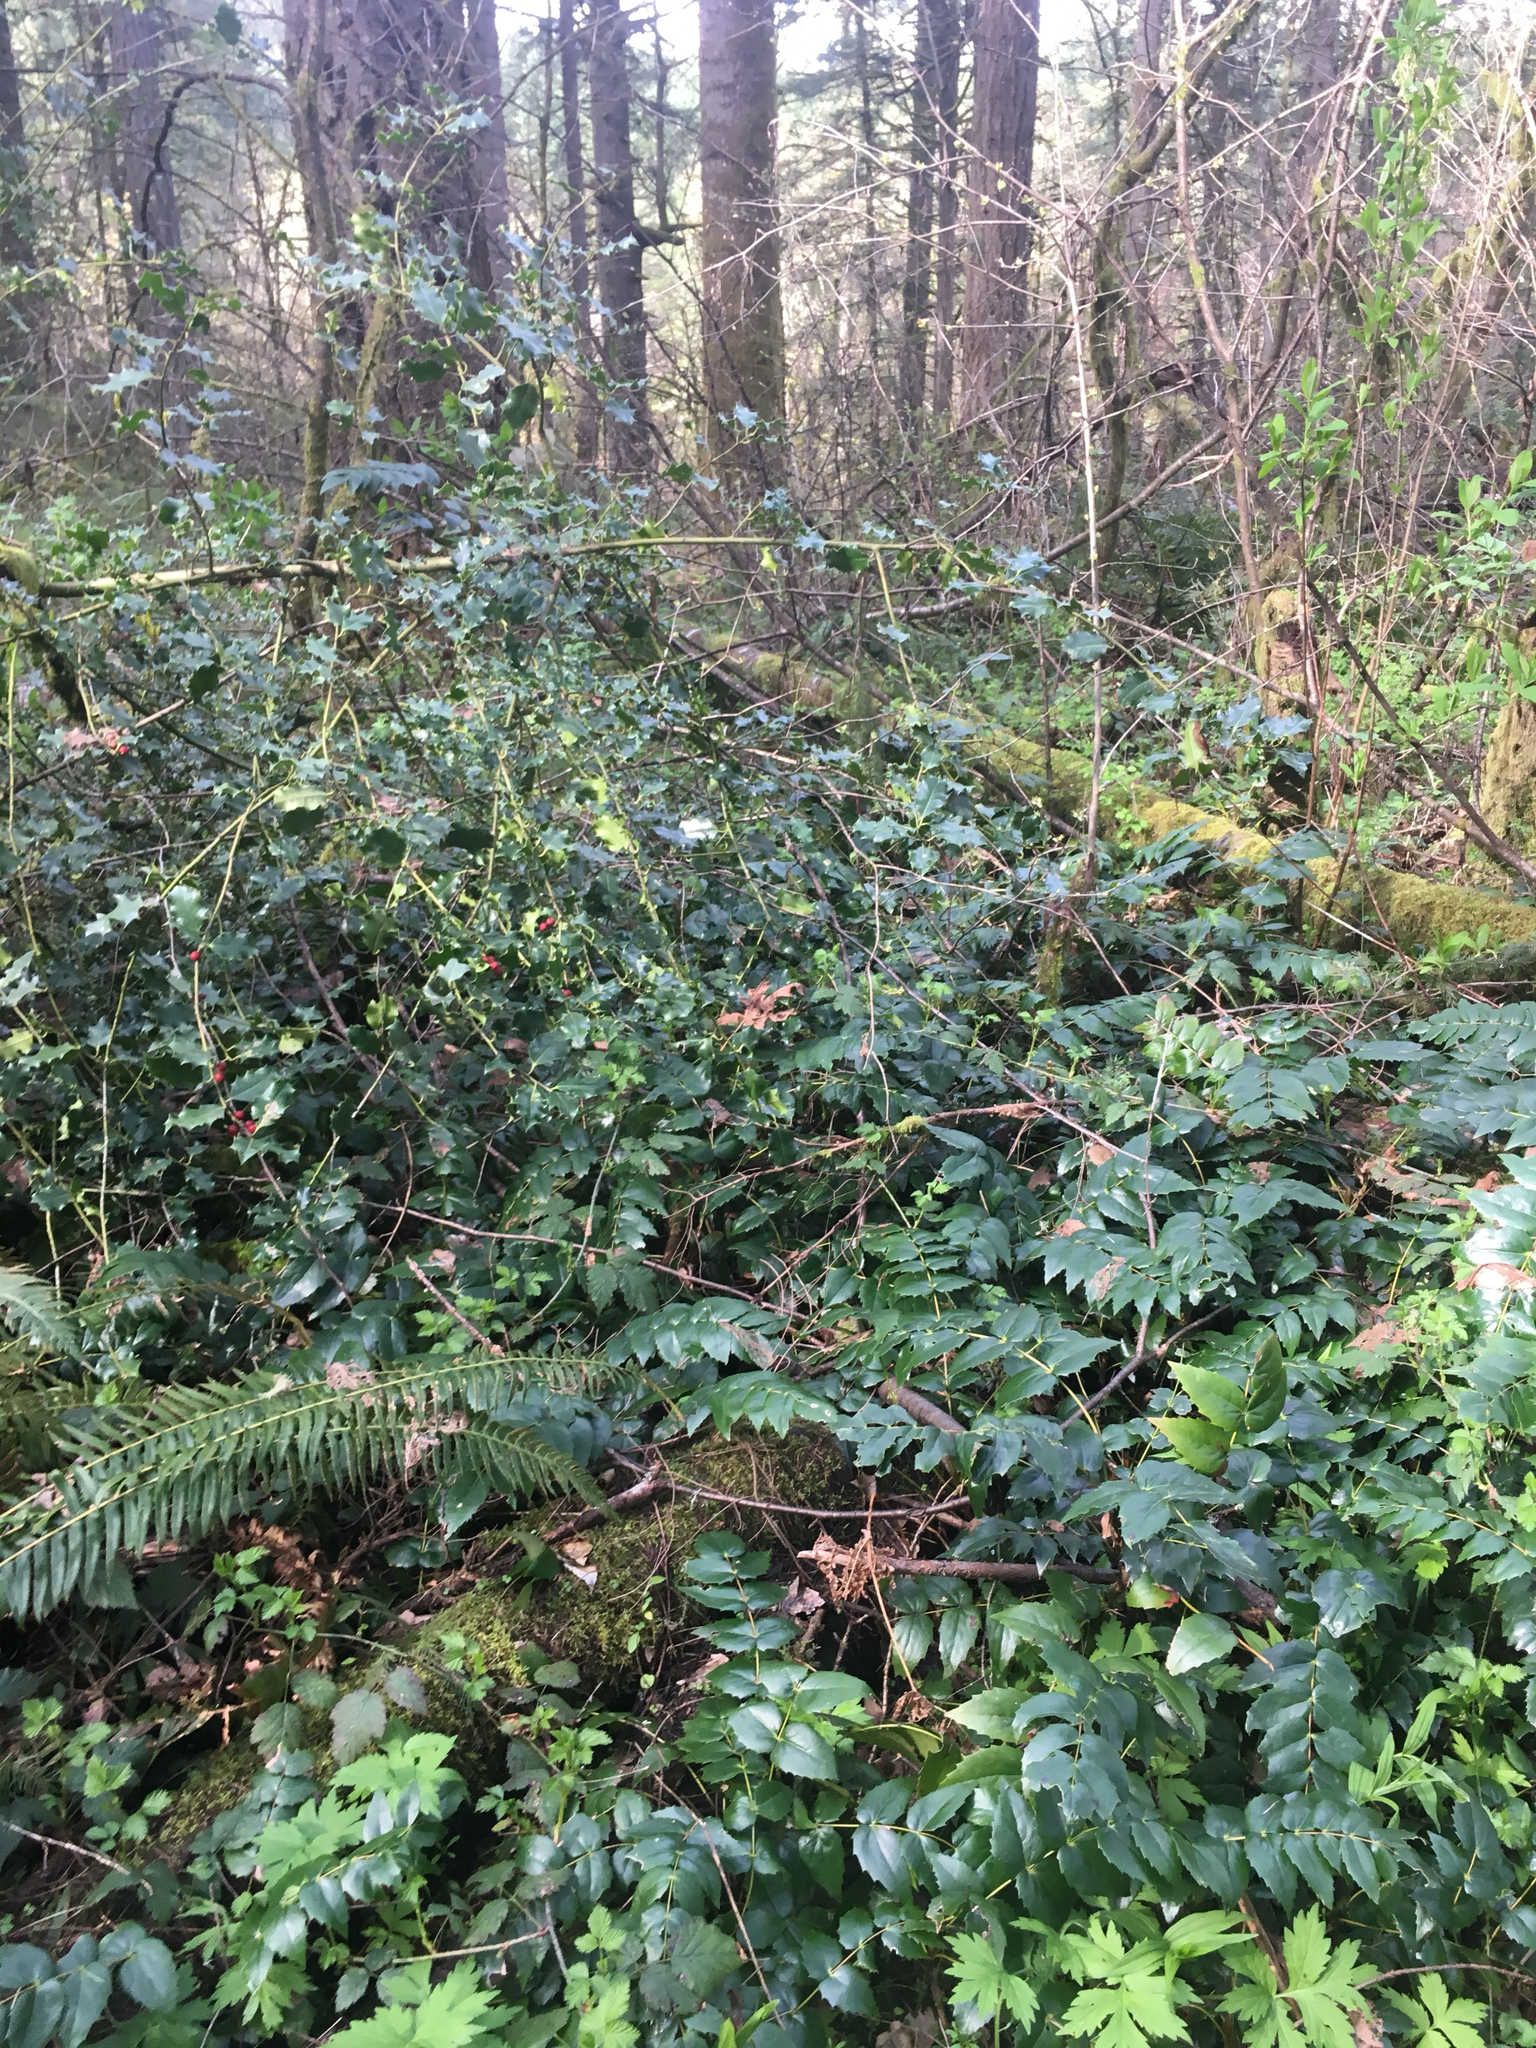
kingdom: Plantae
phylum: Tracheophyta
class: Magnoliopsida
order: Aquifoliales
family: Aquifoliaceae
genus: Ilex
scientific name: Ilex aquifolium
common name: English holly
